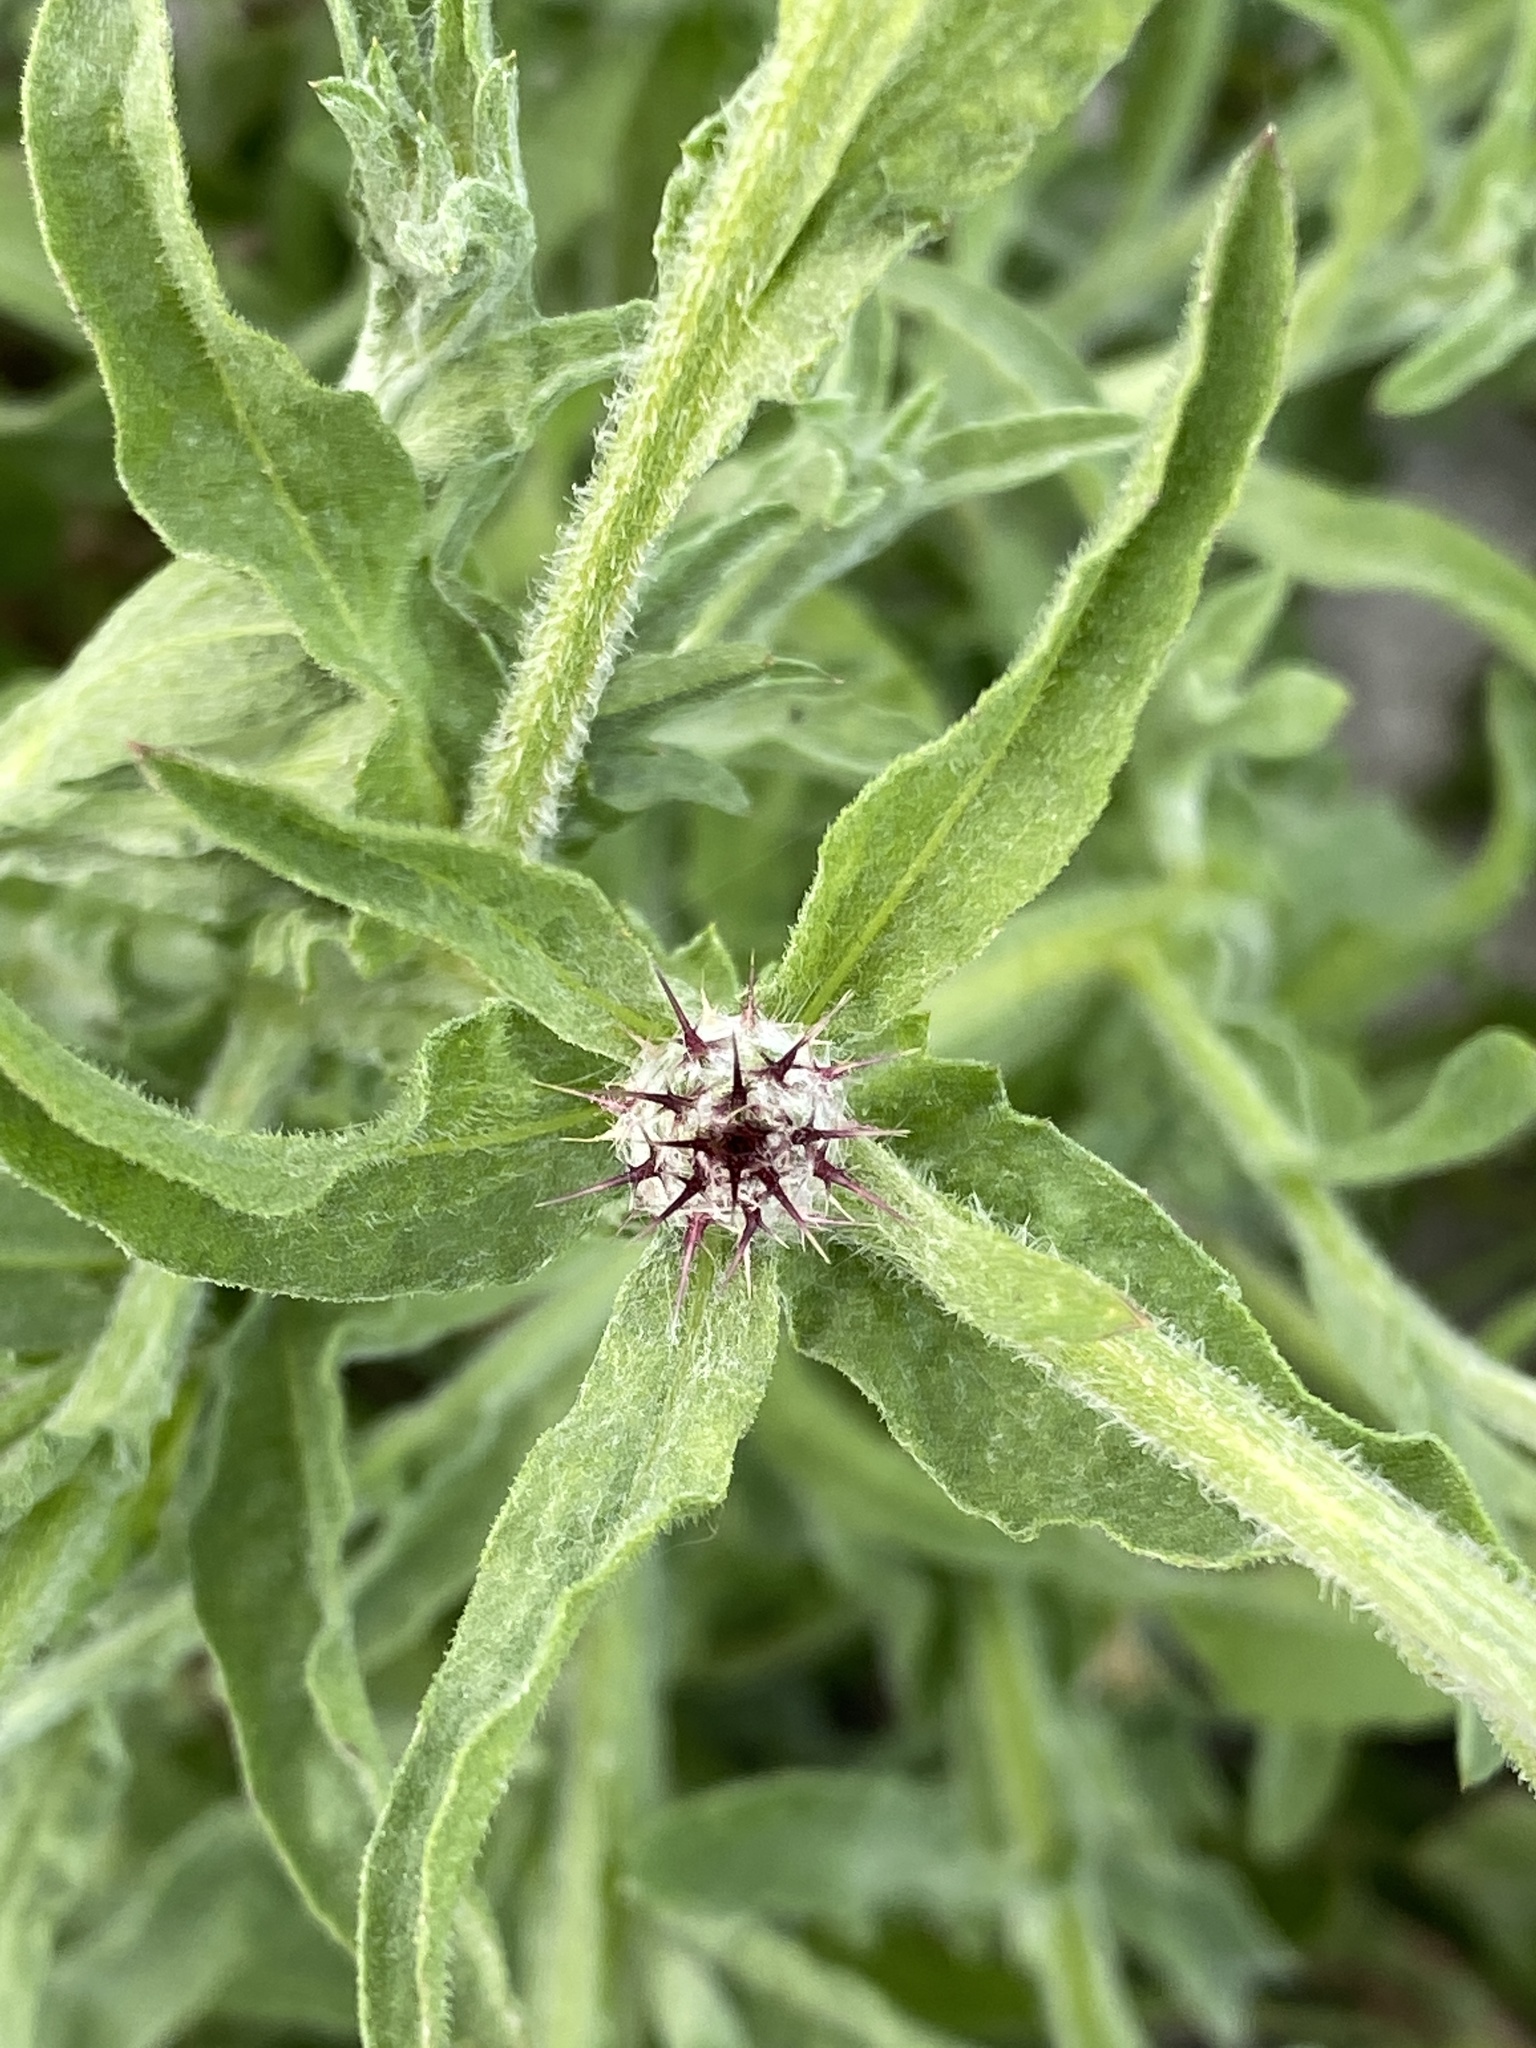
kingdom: Plantae
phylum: Tracheophyta
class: Magnoliopsida
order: Asterales
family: Asteraceae
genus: Centaurea
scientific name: Centaurea melitensis
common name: Maltese star-thistle
